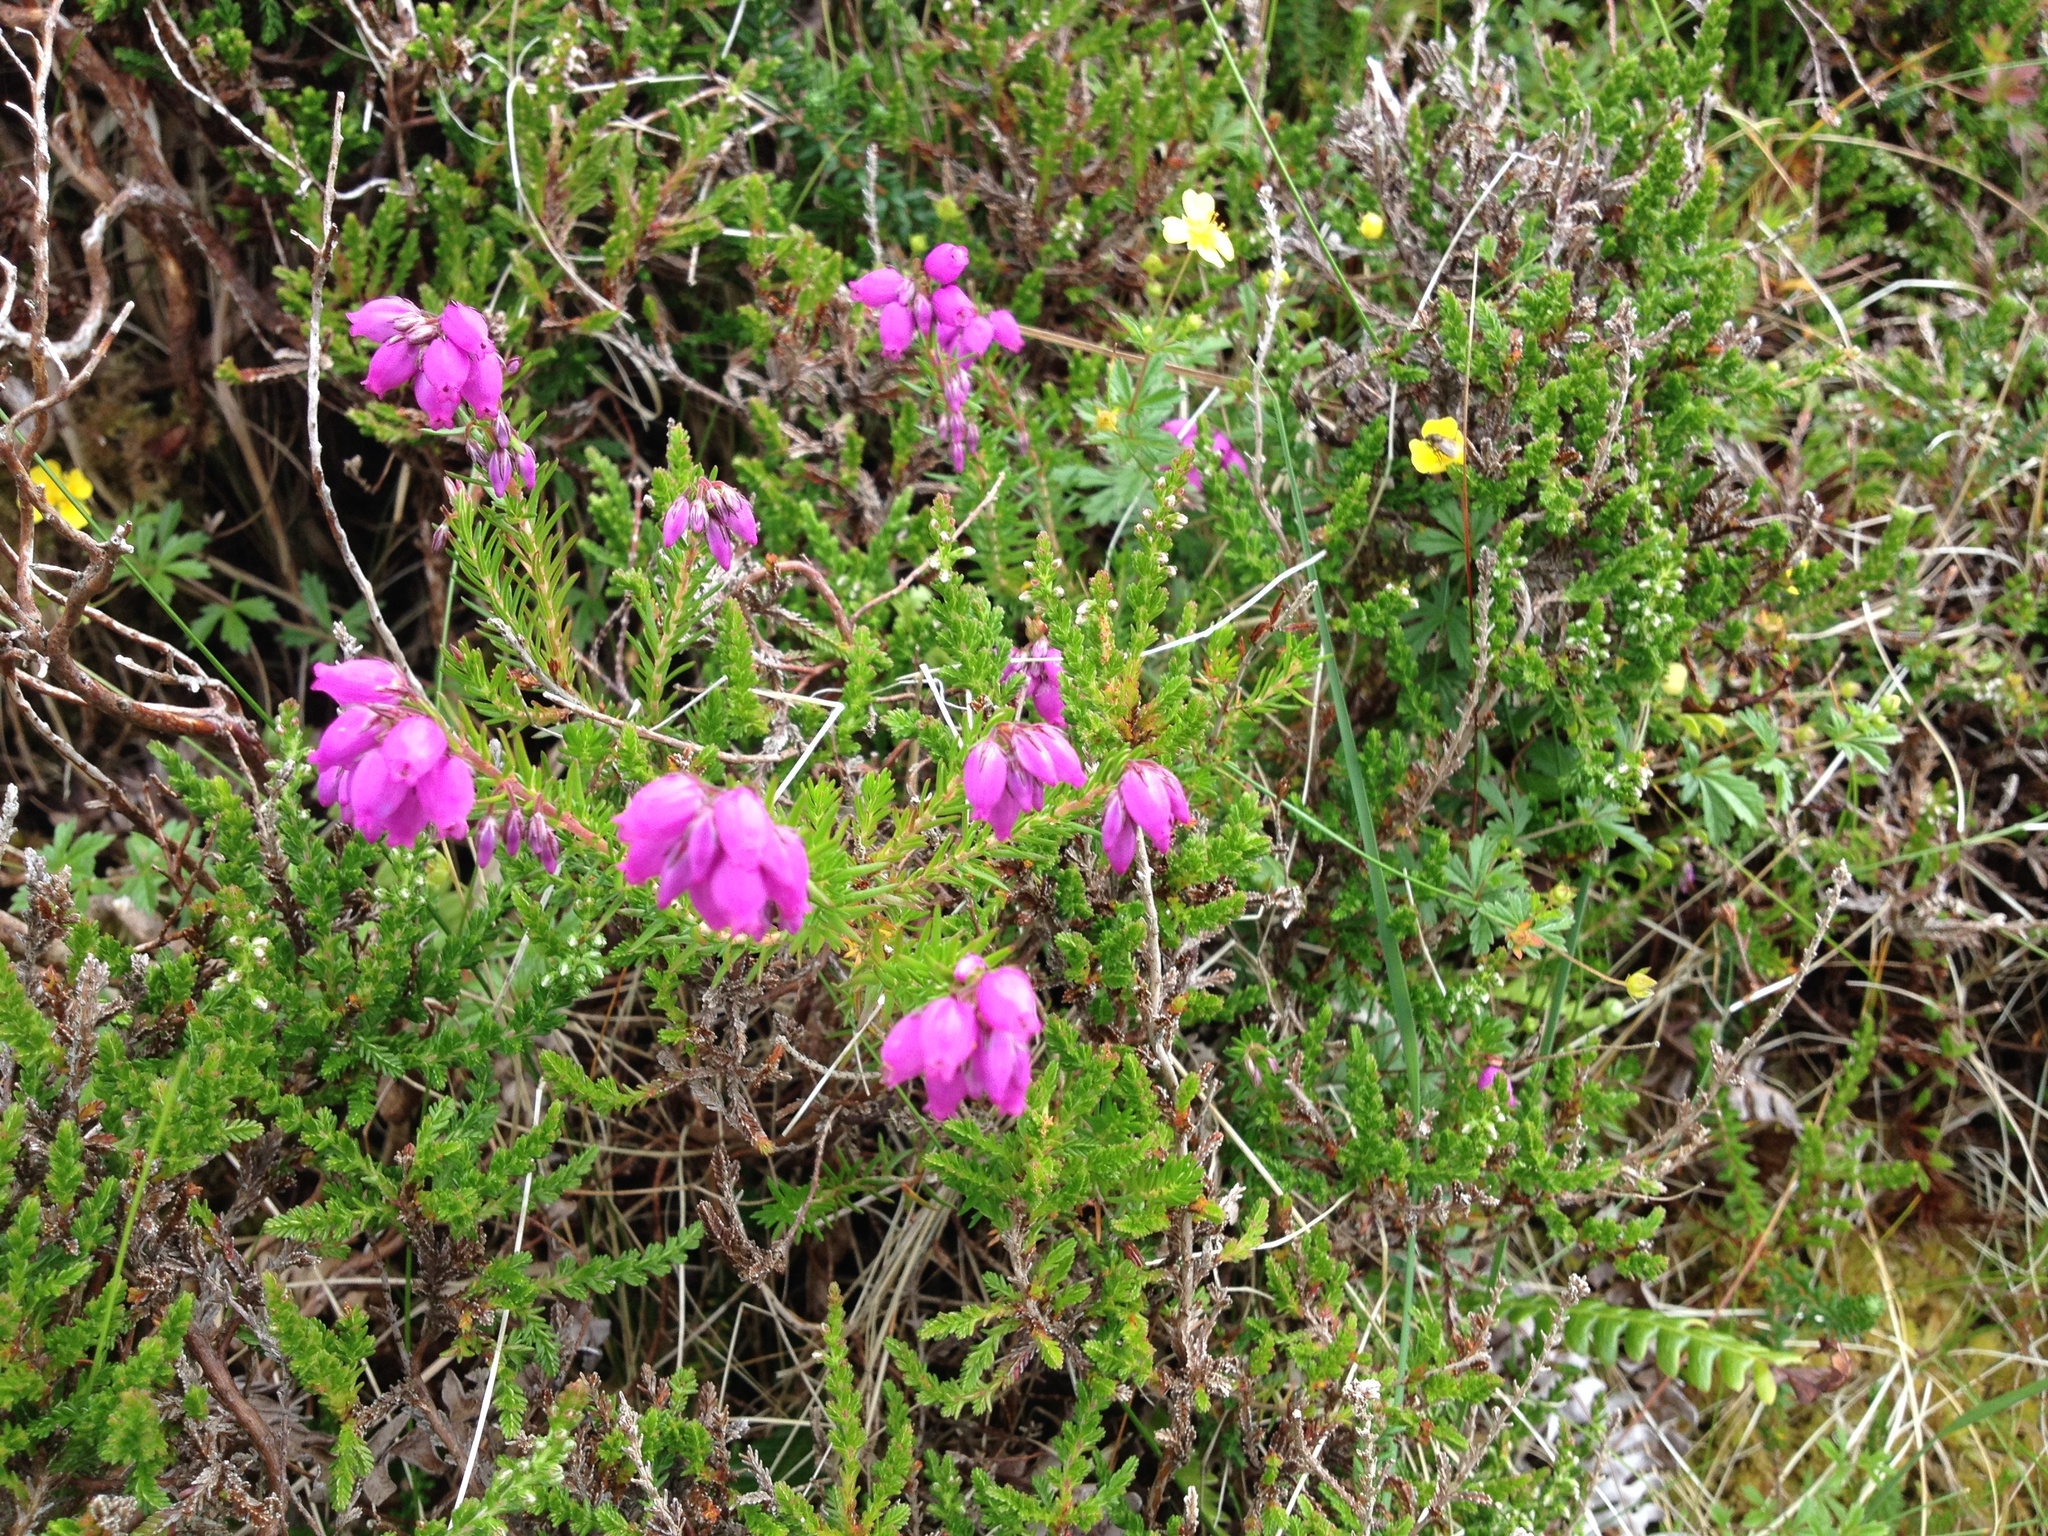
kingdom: Plantae
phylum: Tracheophyta
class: Magnoliopsida
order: Ericales
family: Ericaceae
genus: Daboecia
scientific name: Daboecia cantabrica
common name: St. dabeoc's-heath
